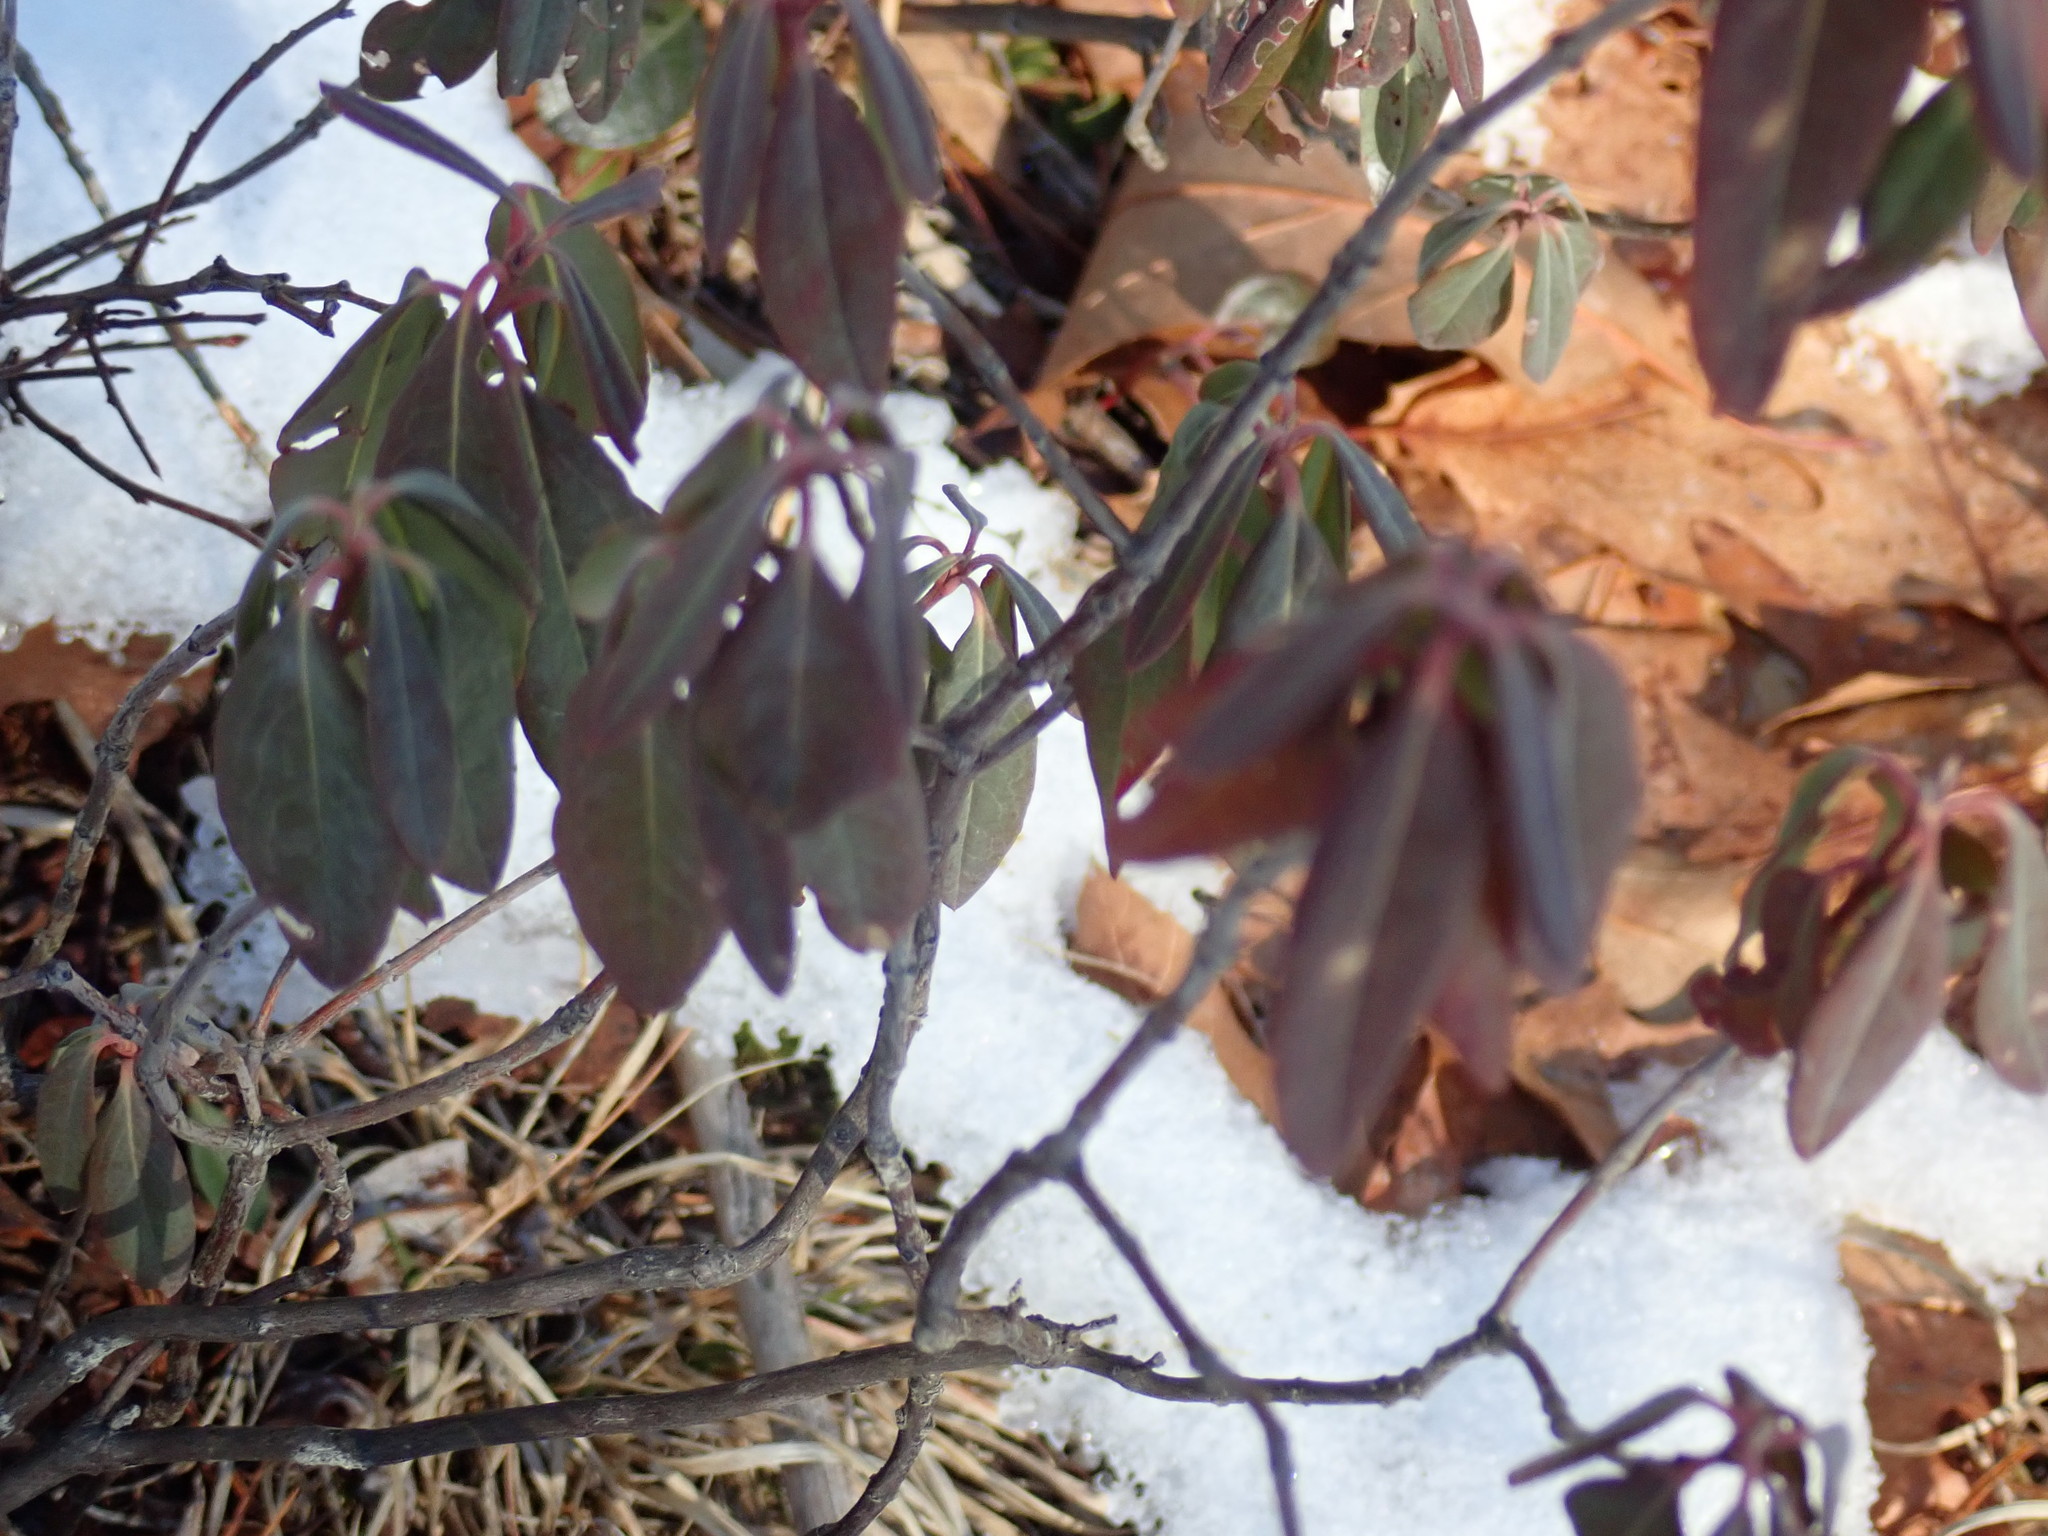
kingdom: Plantae
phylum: Tracheophyta
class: Magnoliopsida
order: Ericales
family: Ericaceae
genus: Kalmia
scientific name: Kalmia angustifolia
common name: Sheep-laurel
